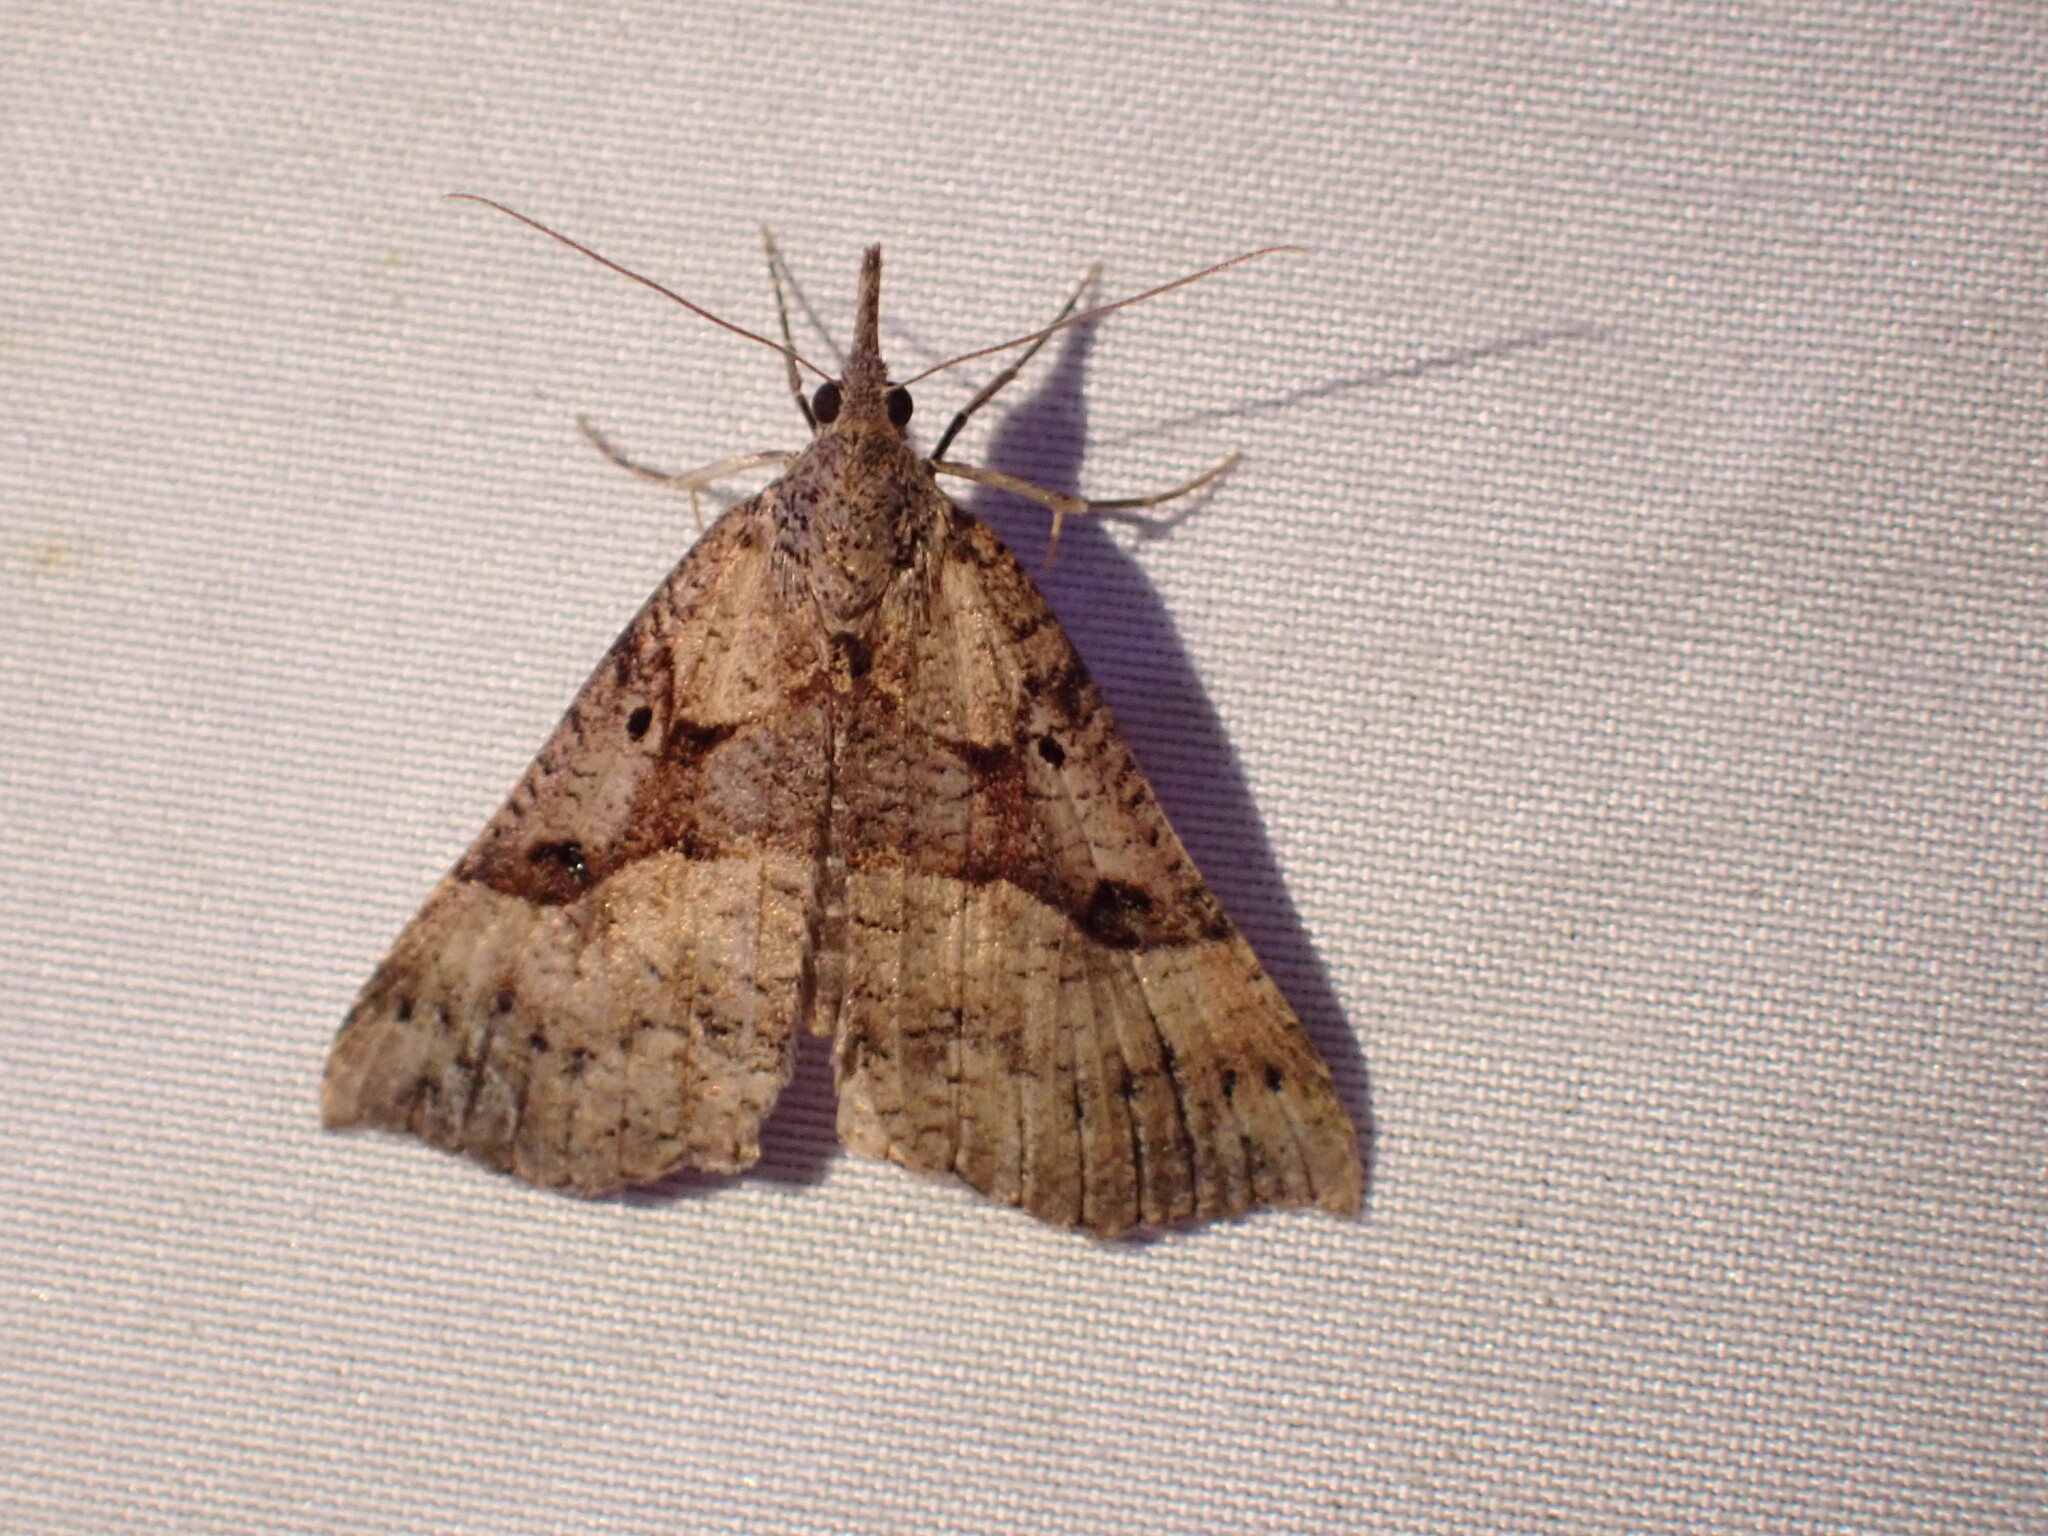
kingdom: Animalia
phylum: Arthropoda
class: Insecta
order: Lepidoptera
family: Erebidae
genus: Hypena
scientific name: Hypena edictalis
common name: Large snout
